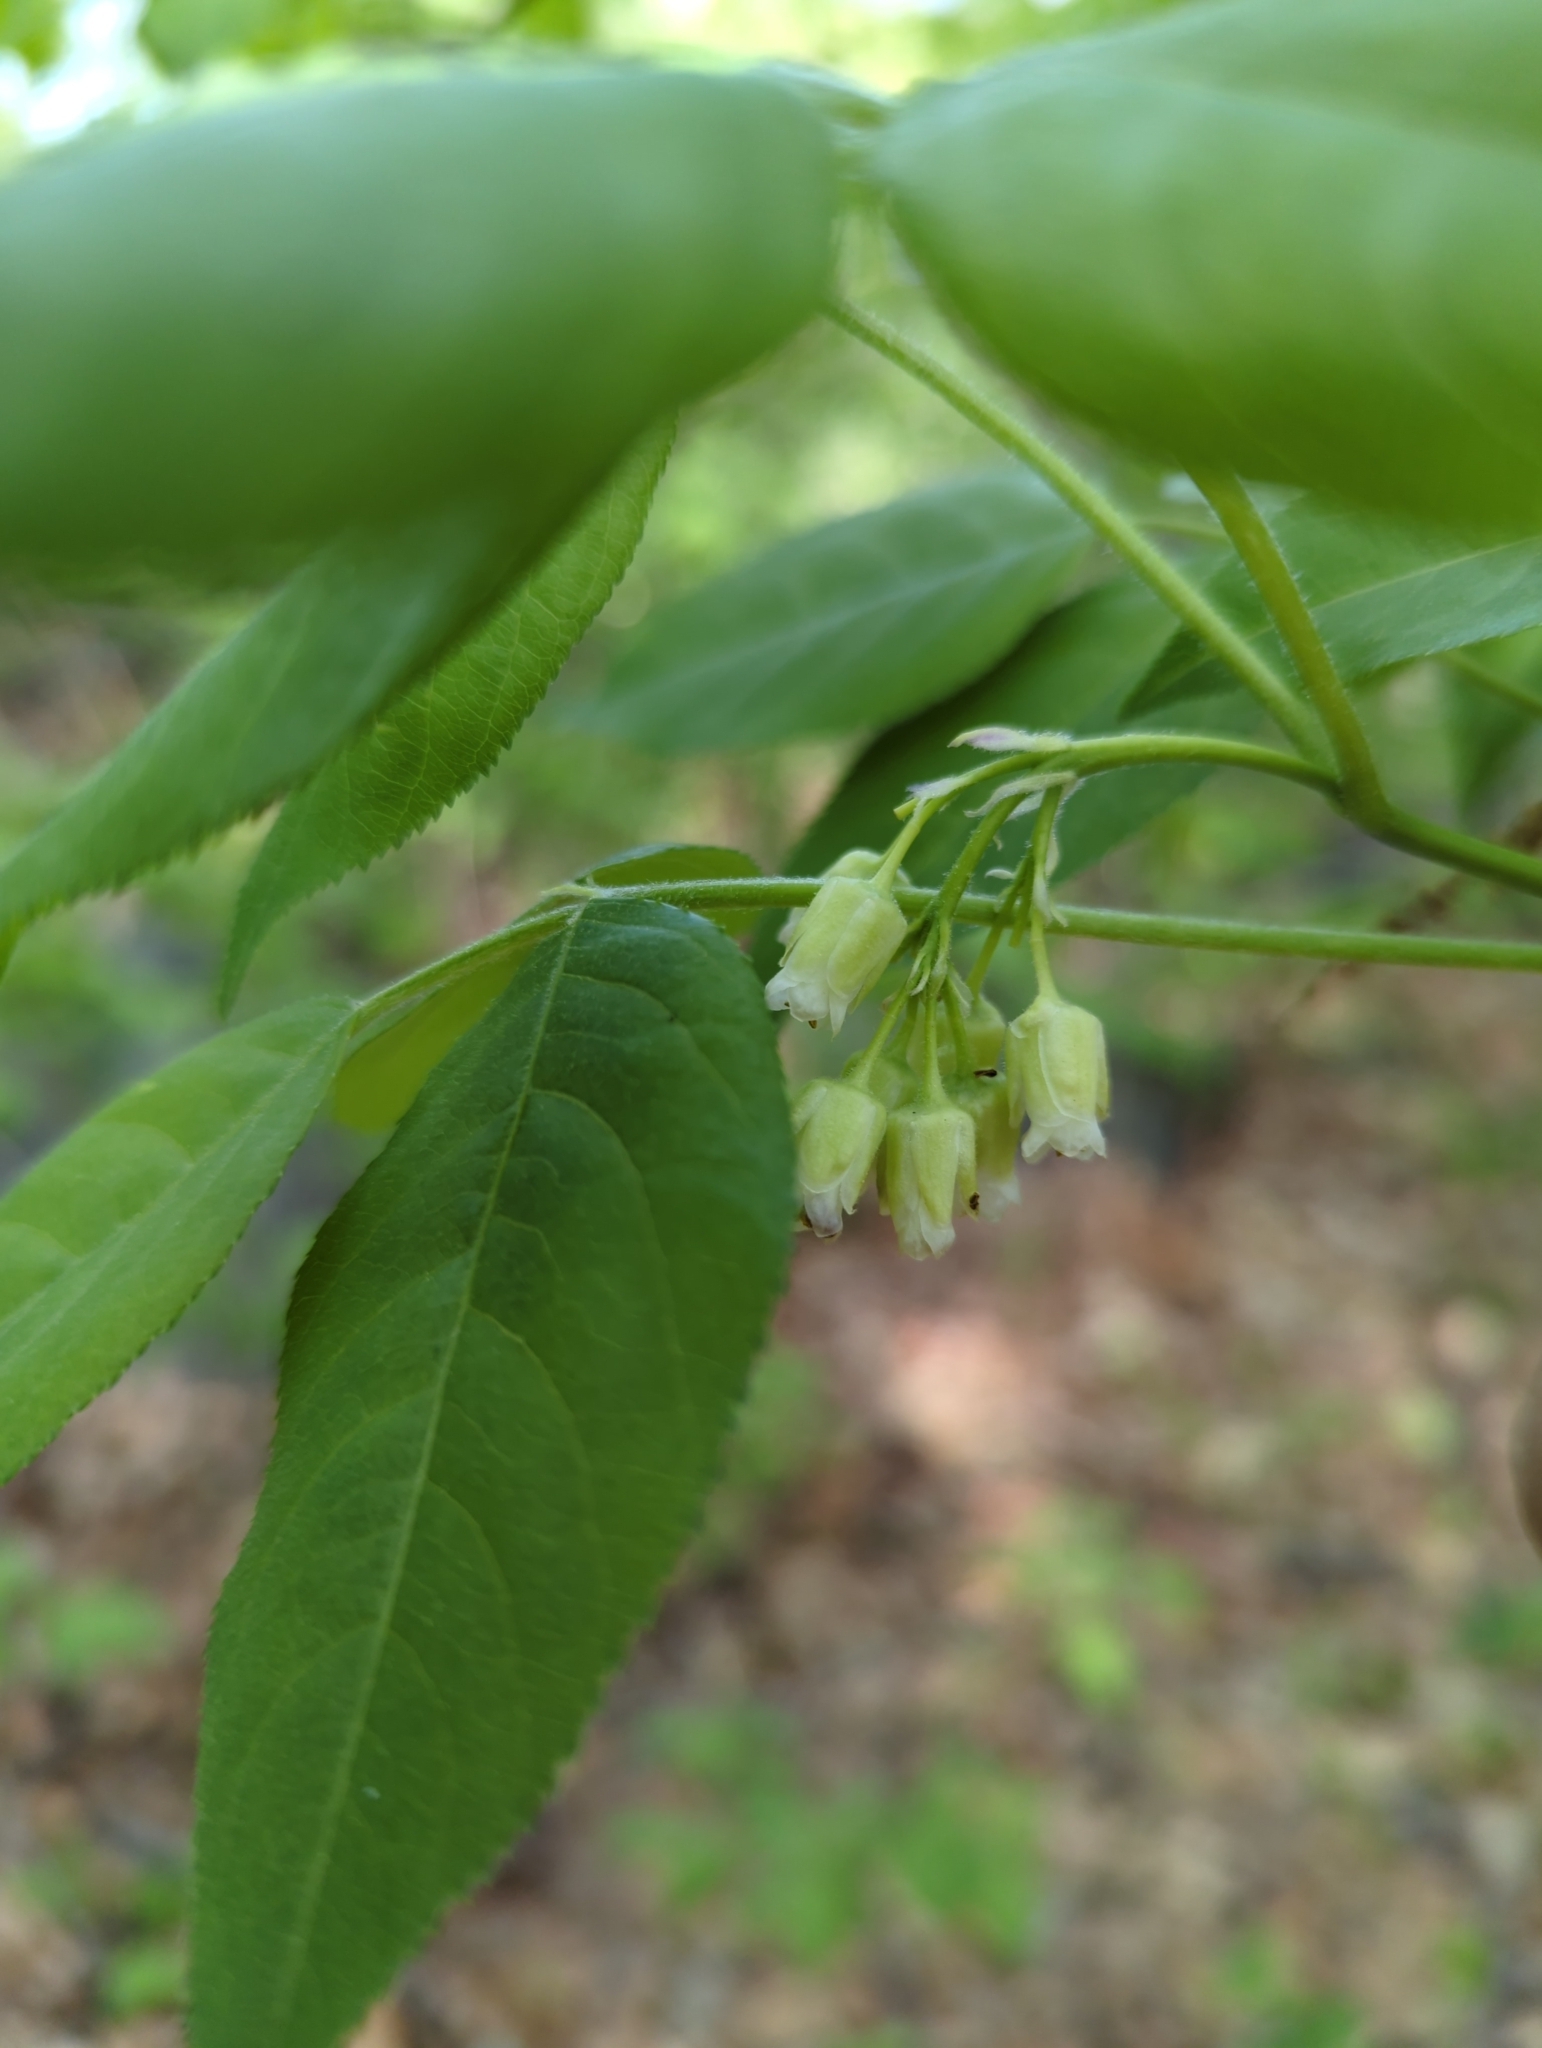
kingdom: Plantae
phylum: Tracheophyta
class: Magnoliopsida
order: Crossosomatales
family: Staphyleaceae
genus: Staphylea
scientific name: Staphylea trifolia
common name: American bladdernut
